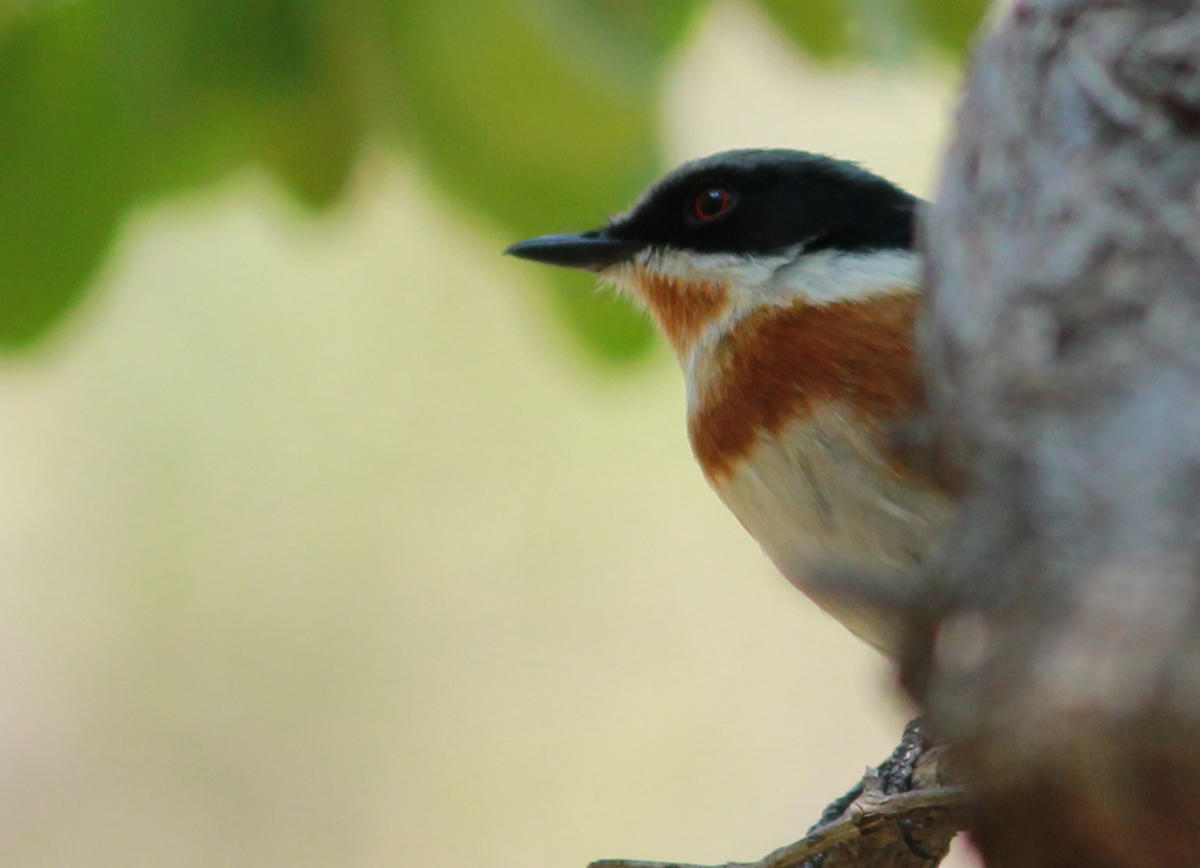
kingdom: Animalia
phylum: Chordata
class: Aves
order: Passeriformes
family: Platysteiridae
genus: Batis
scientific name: Batis capensis
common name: Cape batis
